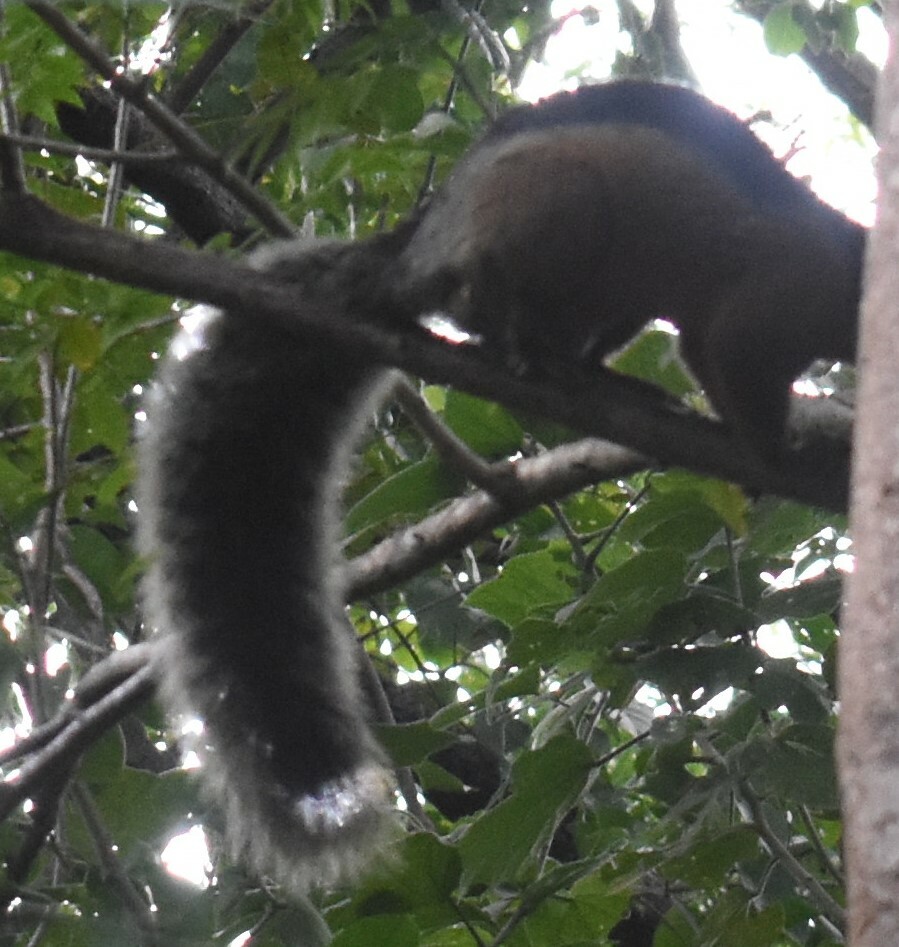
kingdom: Animalia
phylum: Chordata
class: Mammalia
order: Rodentia
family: Sciuridae
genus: Sciurus
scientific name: Sciurus variegatoides
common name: Variegated squirrel
